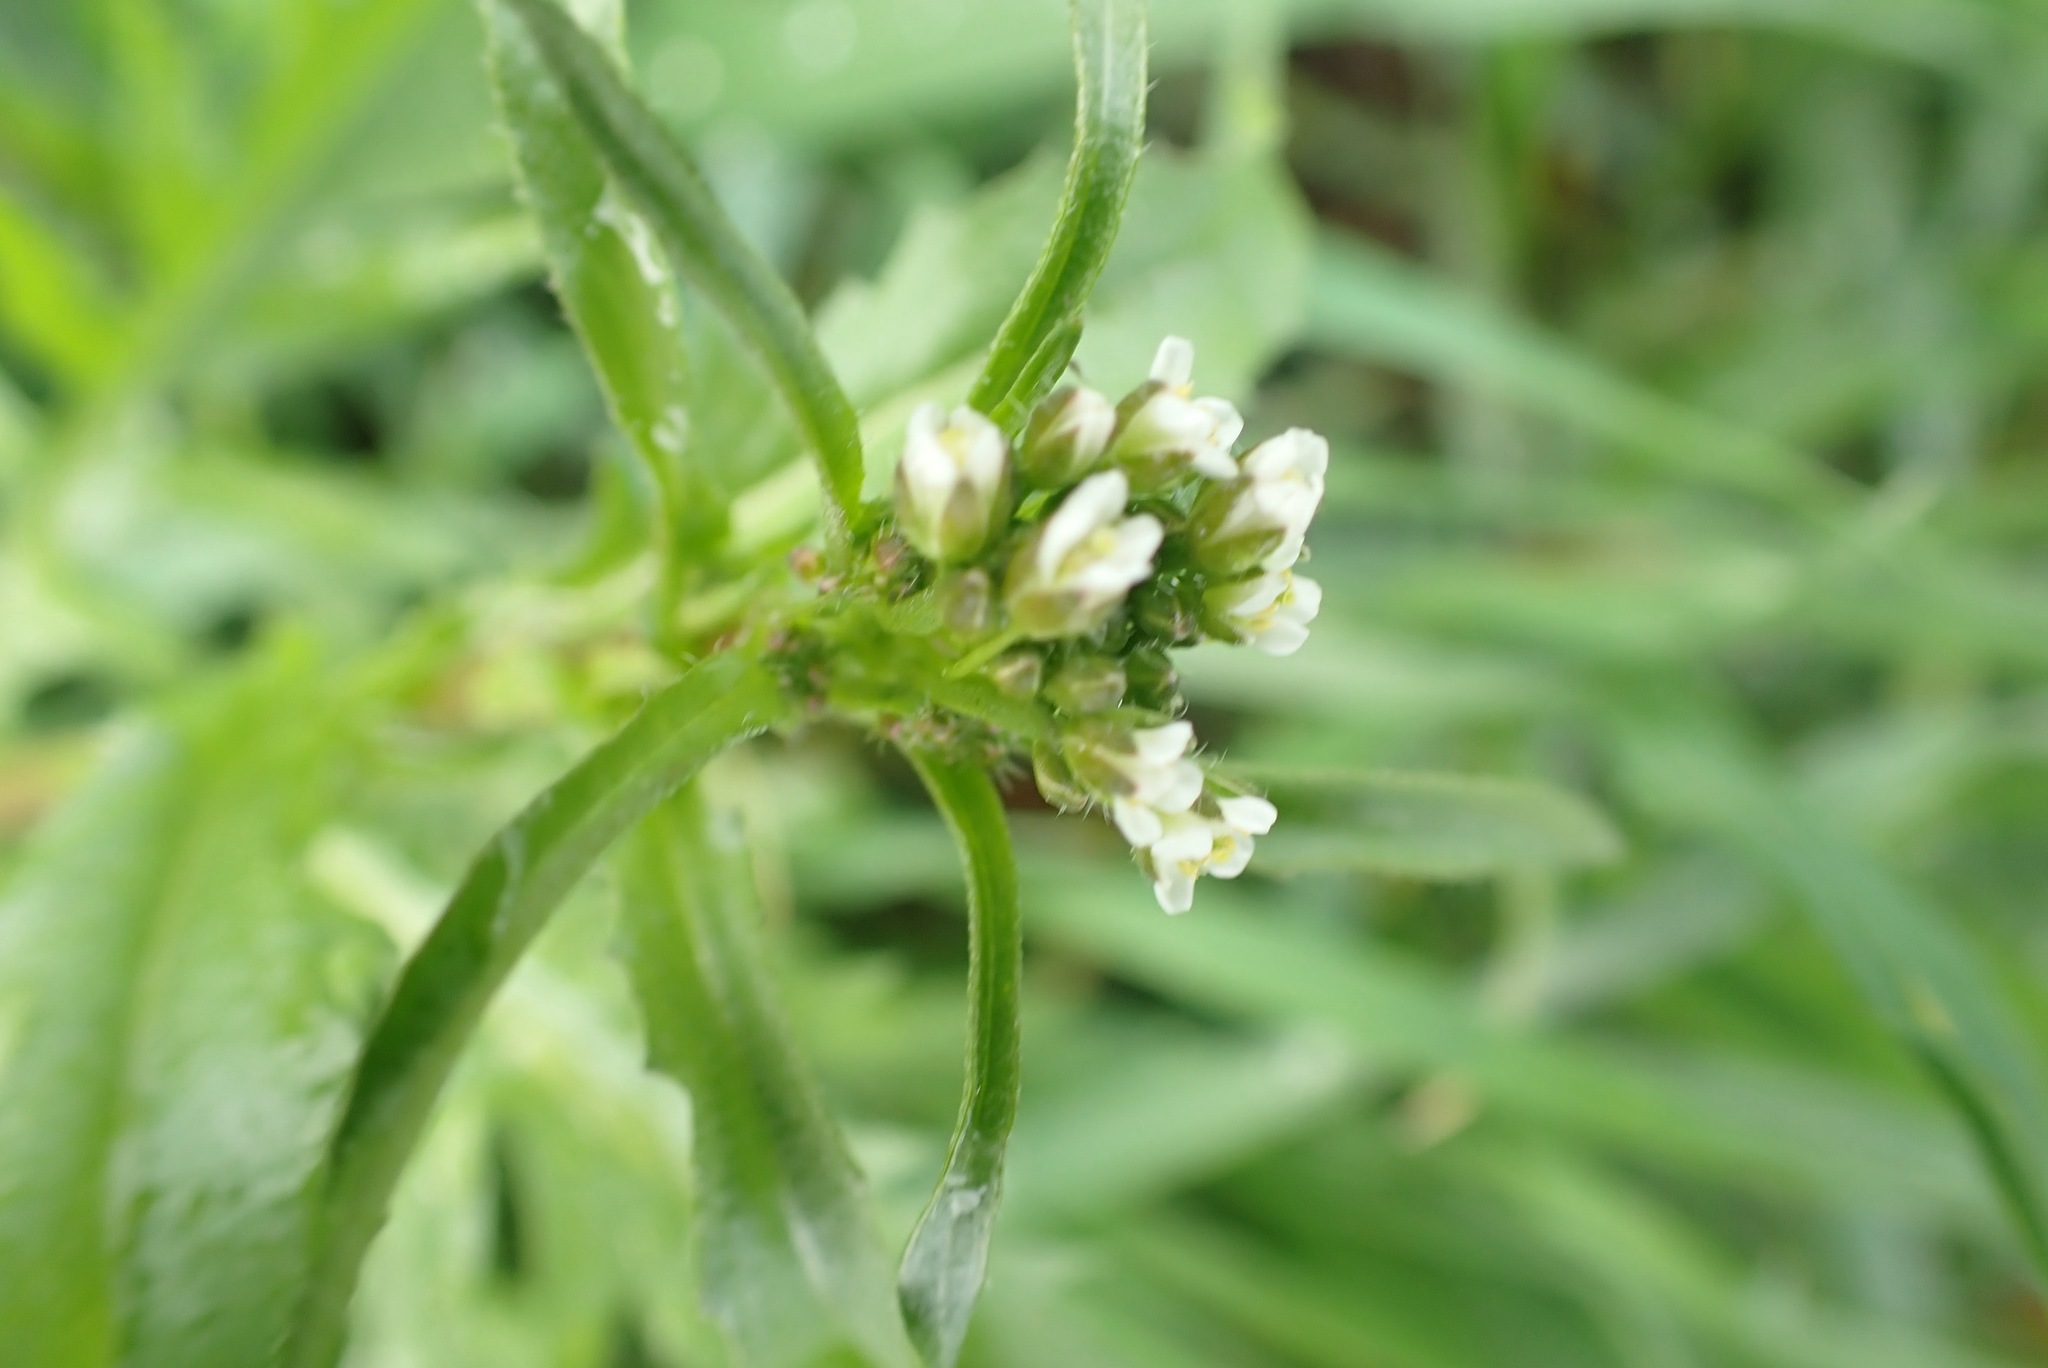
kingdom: Plantae
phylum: Tracheophyta
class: Magnoliopsida
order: Brassicales
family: Brassicaceae
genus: Capsella
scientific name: Capsella bursa-pastoris
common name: Shepherd's purse
